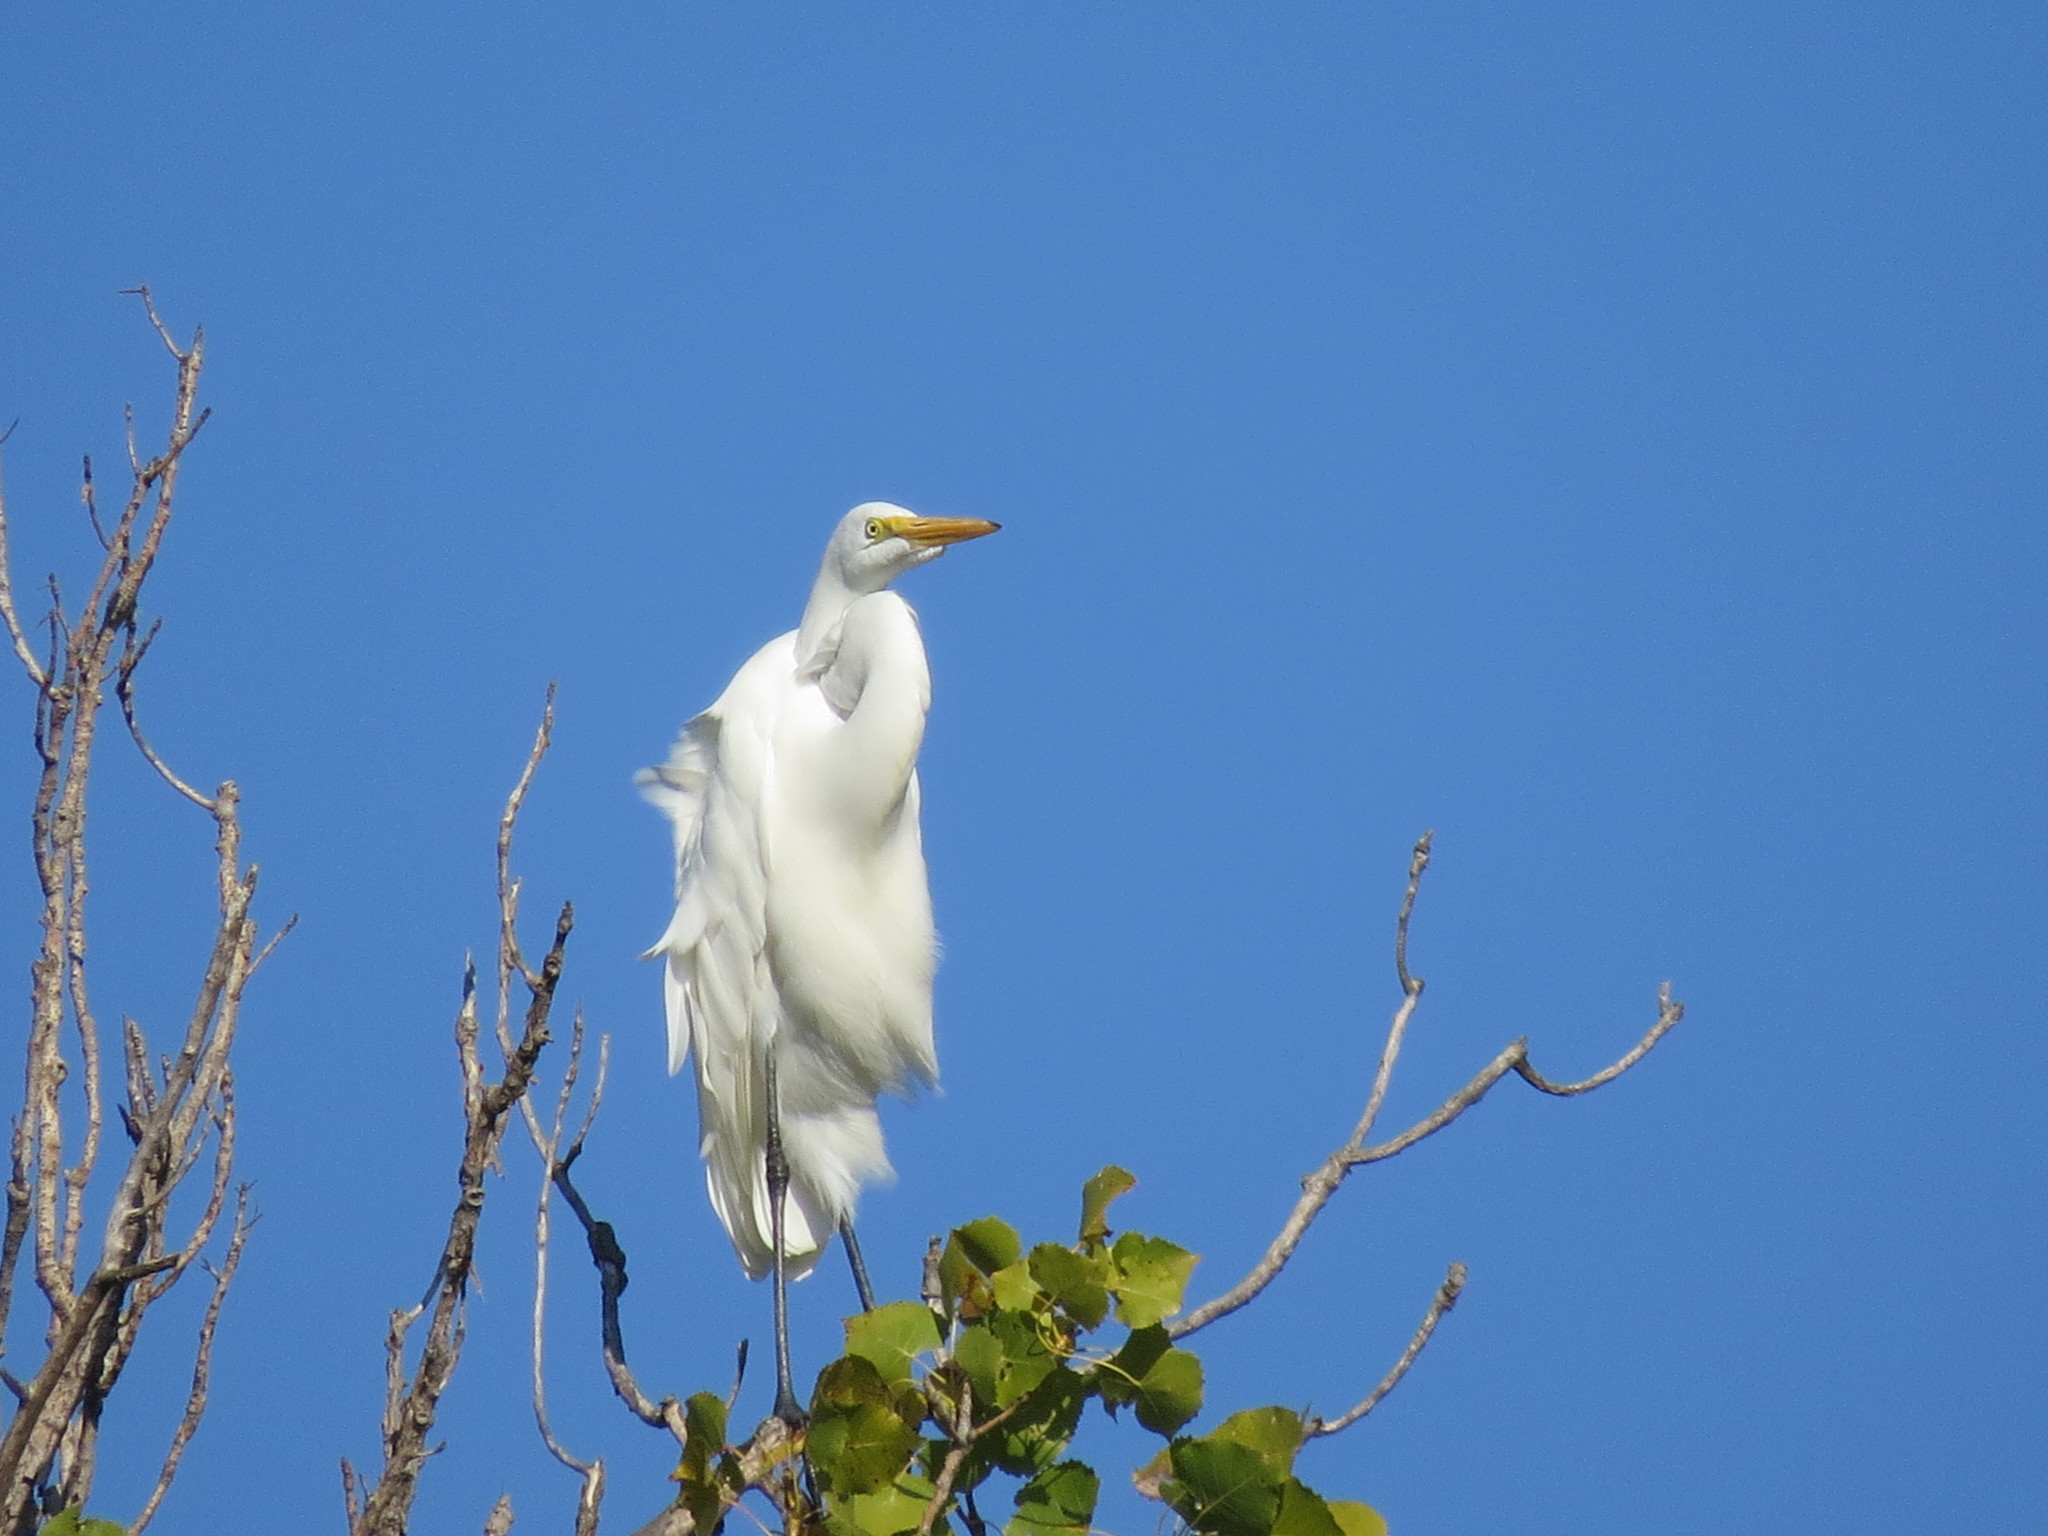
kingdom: Animalia
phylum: Chordata
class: Aves
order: Pelecaniformes
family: Ardeidae
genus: Ardea
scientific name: Ardea alba
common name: Great egret
